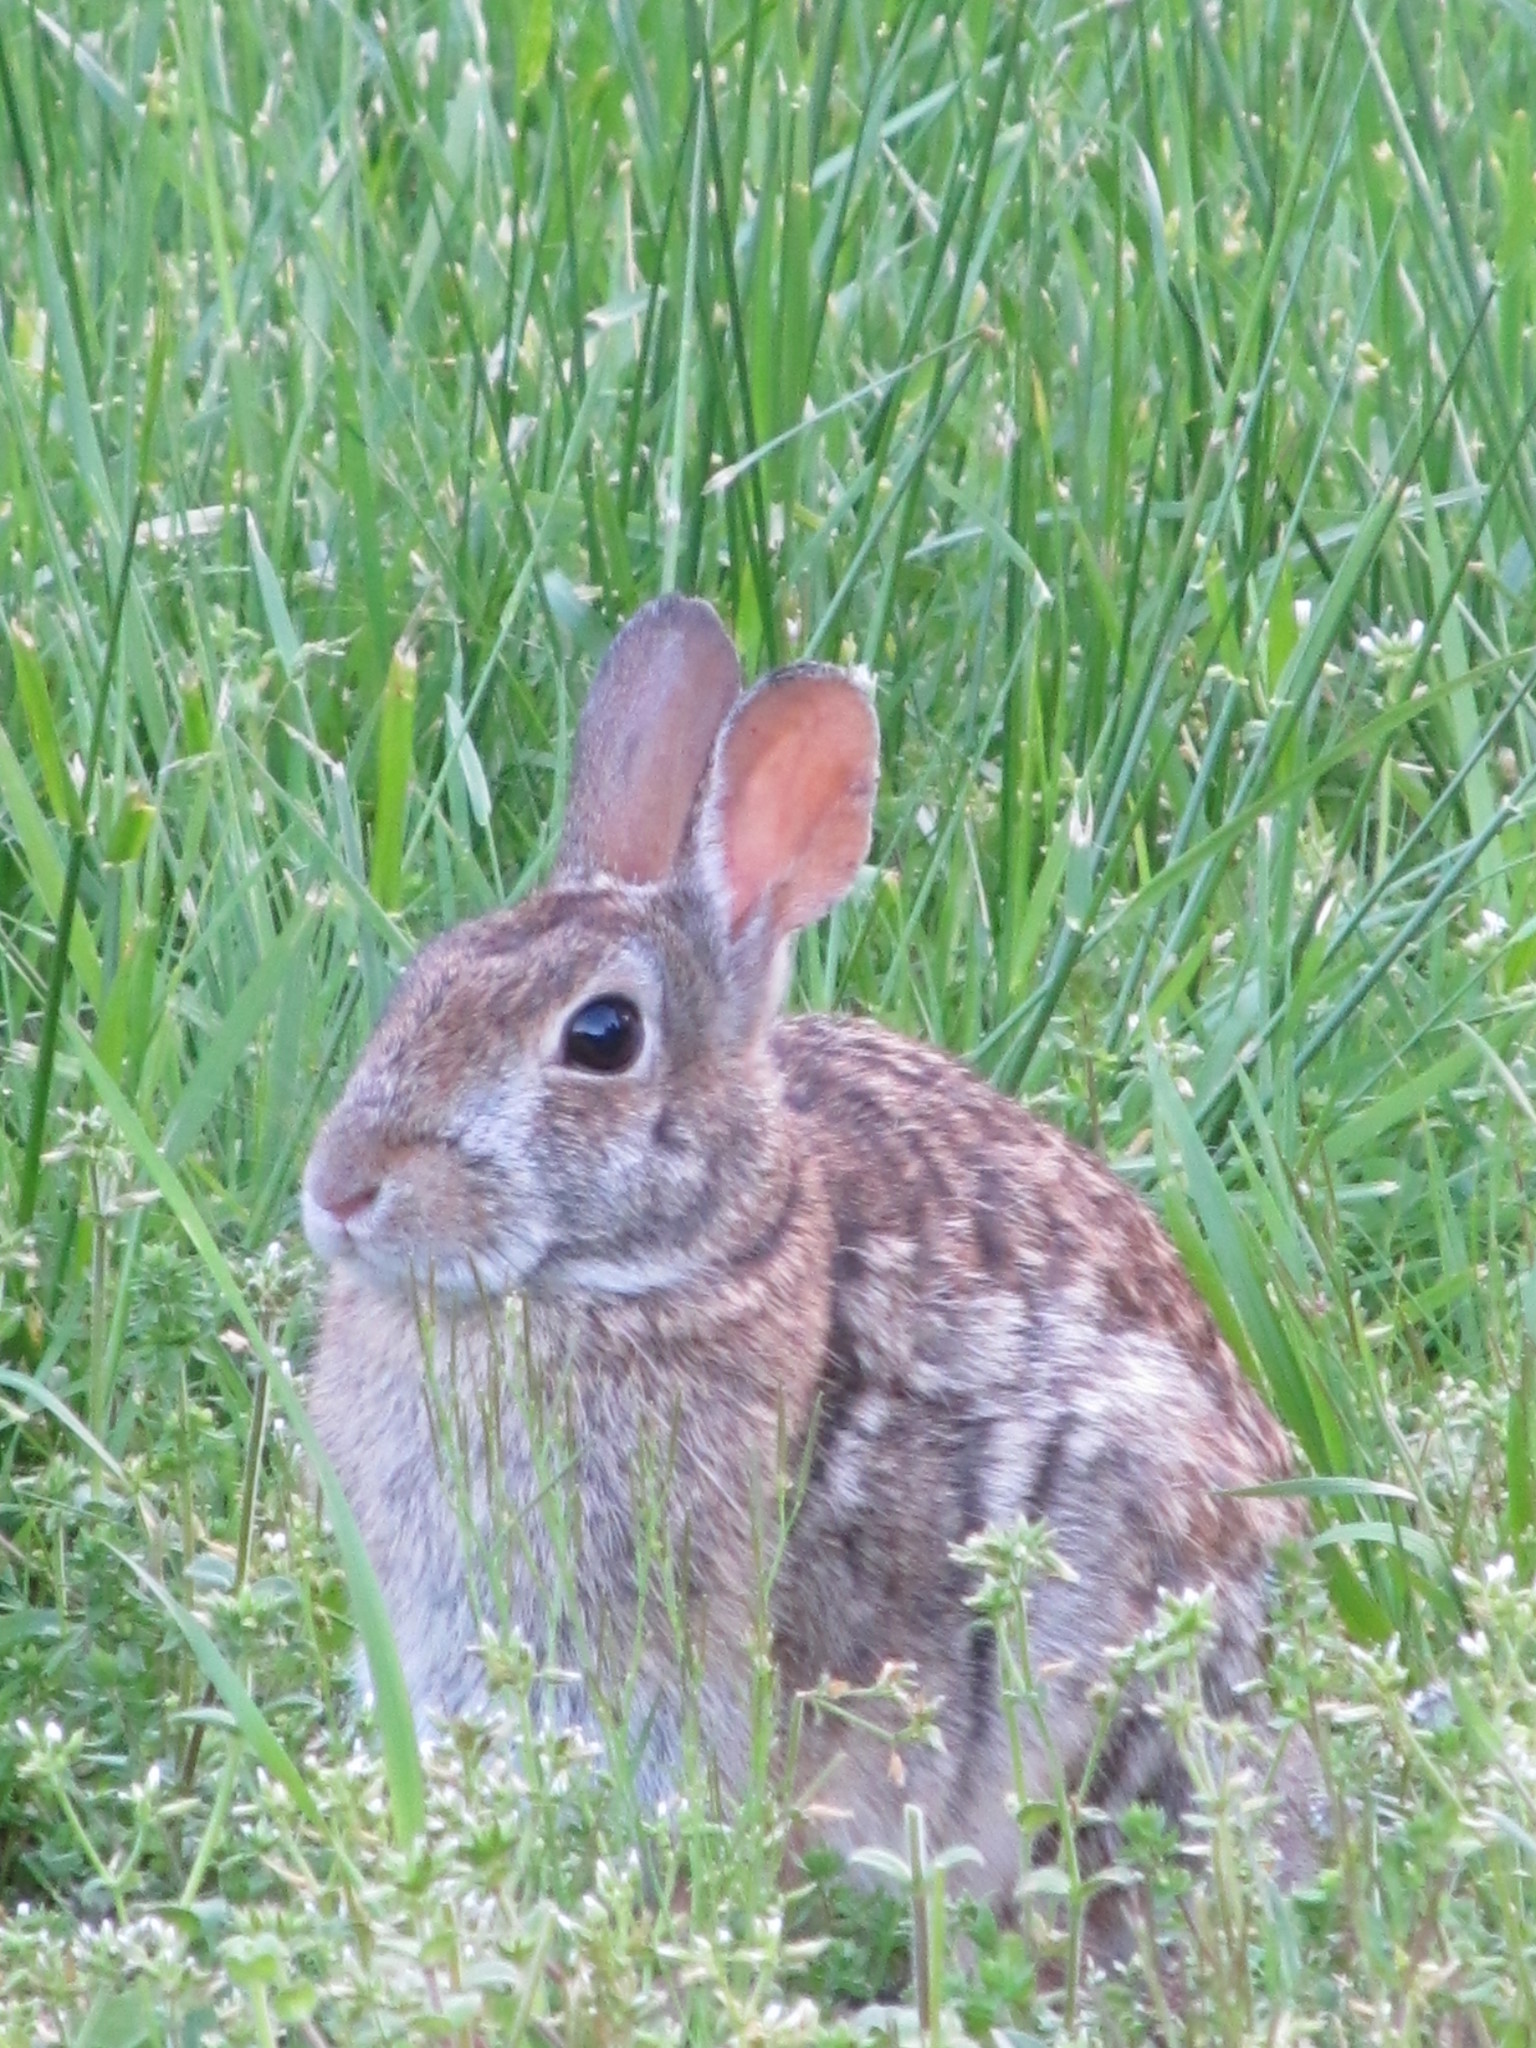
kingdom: Animalia
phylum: Chordata
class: Mammalia
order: Lagomorpha
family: Leporidae
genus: Sylvilagus
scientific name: Sylvilagus floridanus
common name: Eastern cottontail
